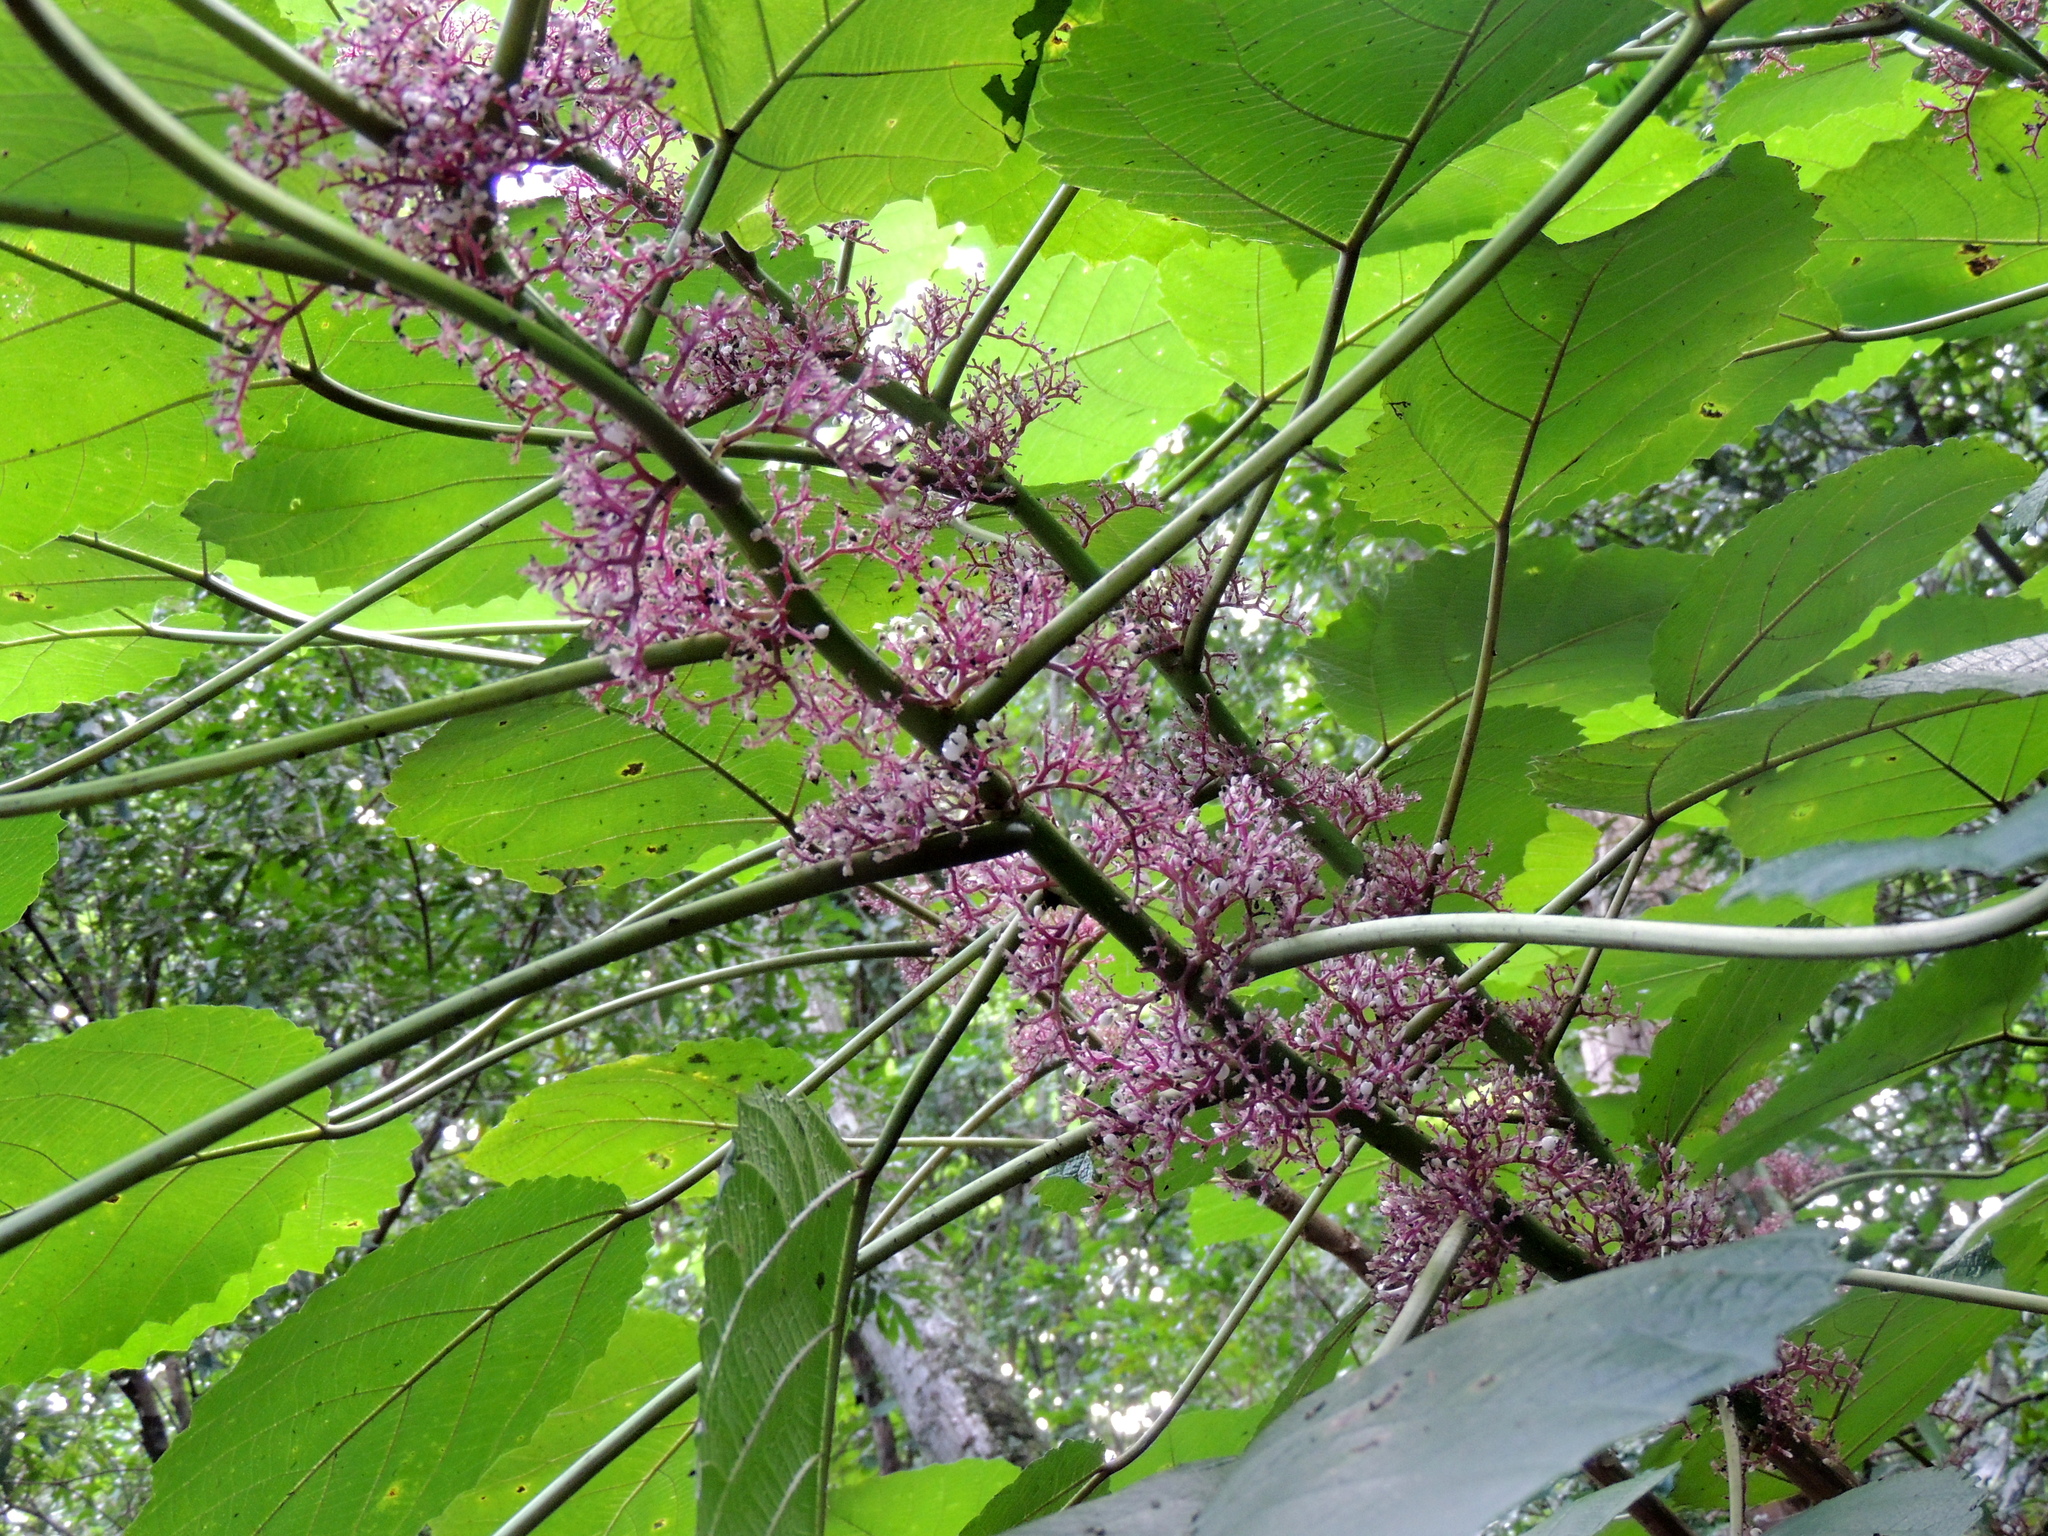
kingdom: Plantae
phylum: Tracheophyta
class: Magnoliopsida
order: Rosales
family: Urticaceae
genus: Urera
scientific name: Urera baccifera
